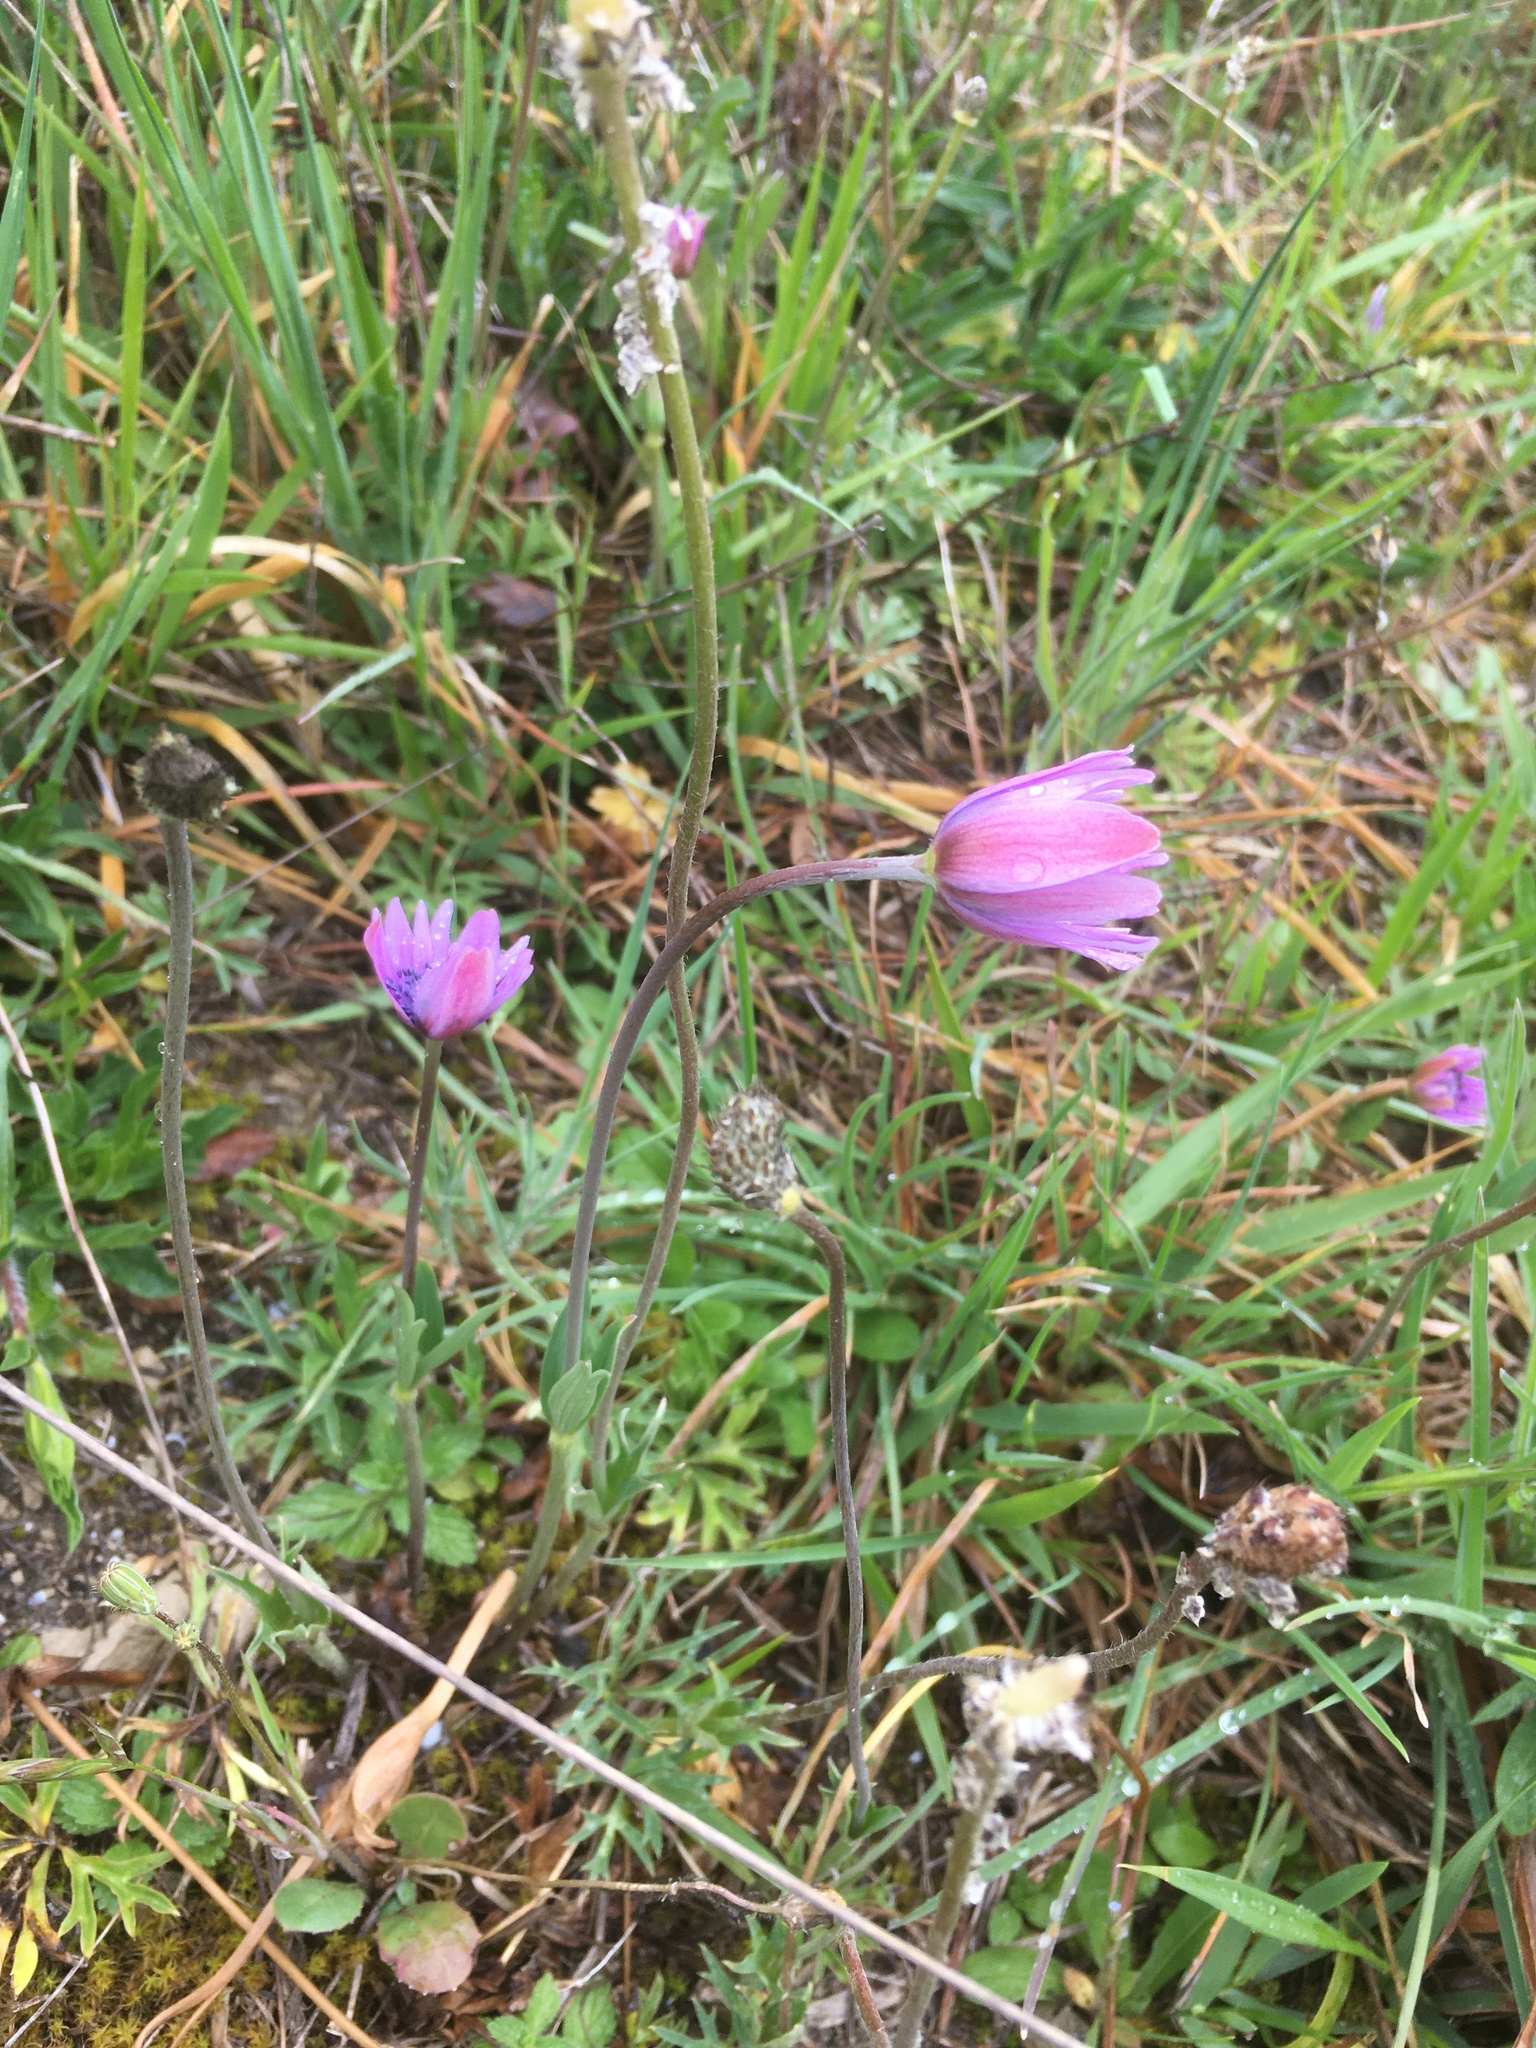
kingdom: Plantae
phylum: Tracheophyta
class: Magnoliopsida
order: Ranunculales
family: Ranunculaceae
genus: Anemone
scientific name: Anemone hortensis
